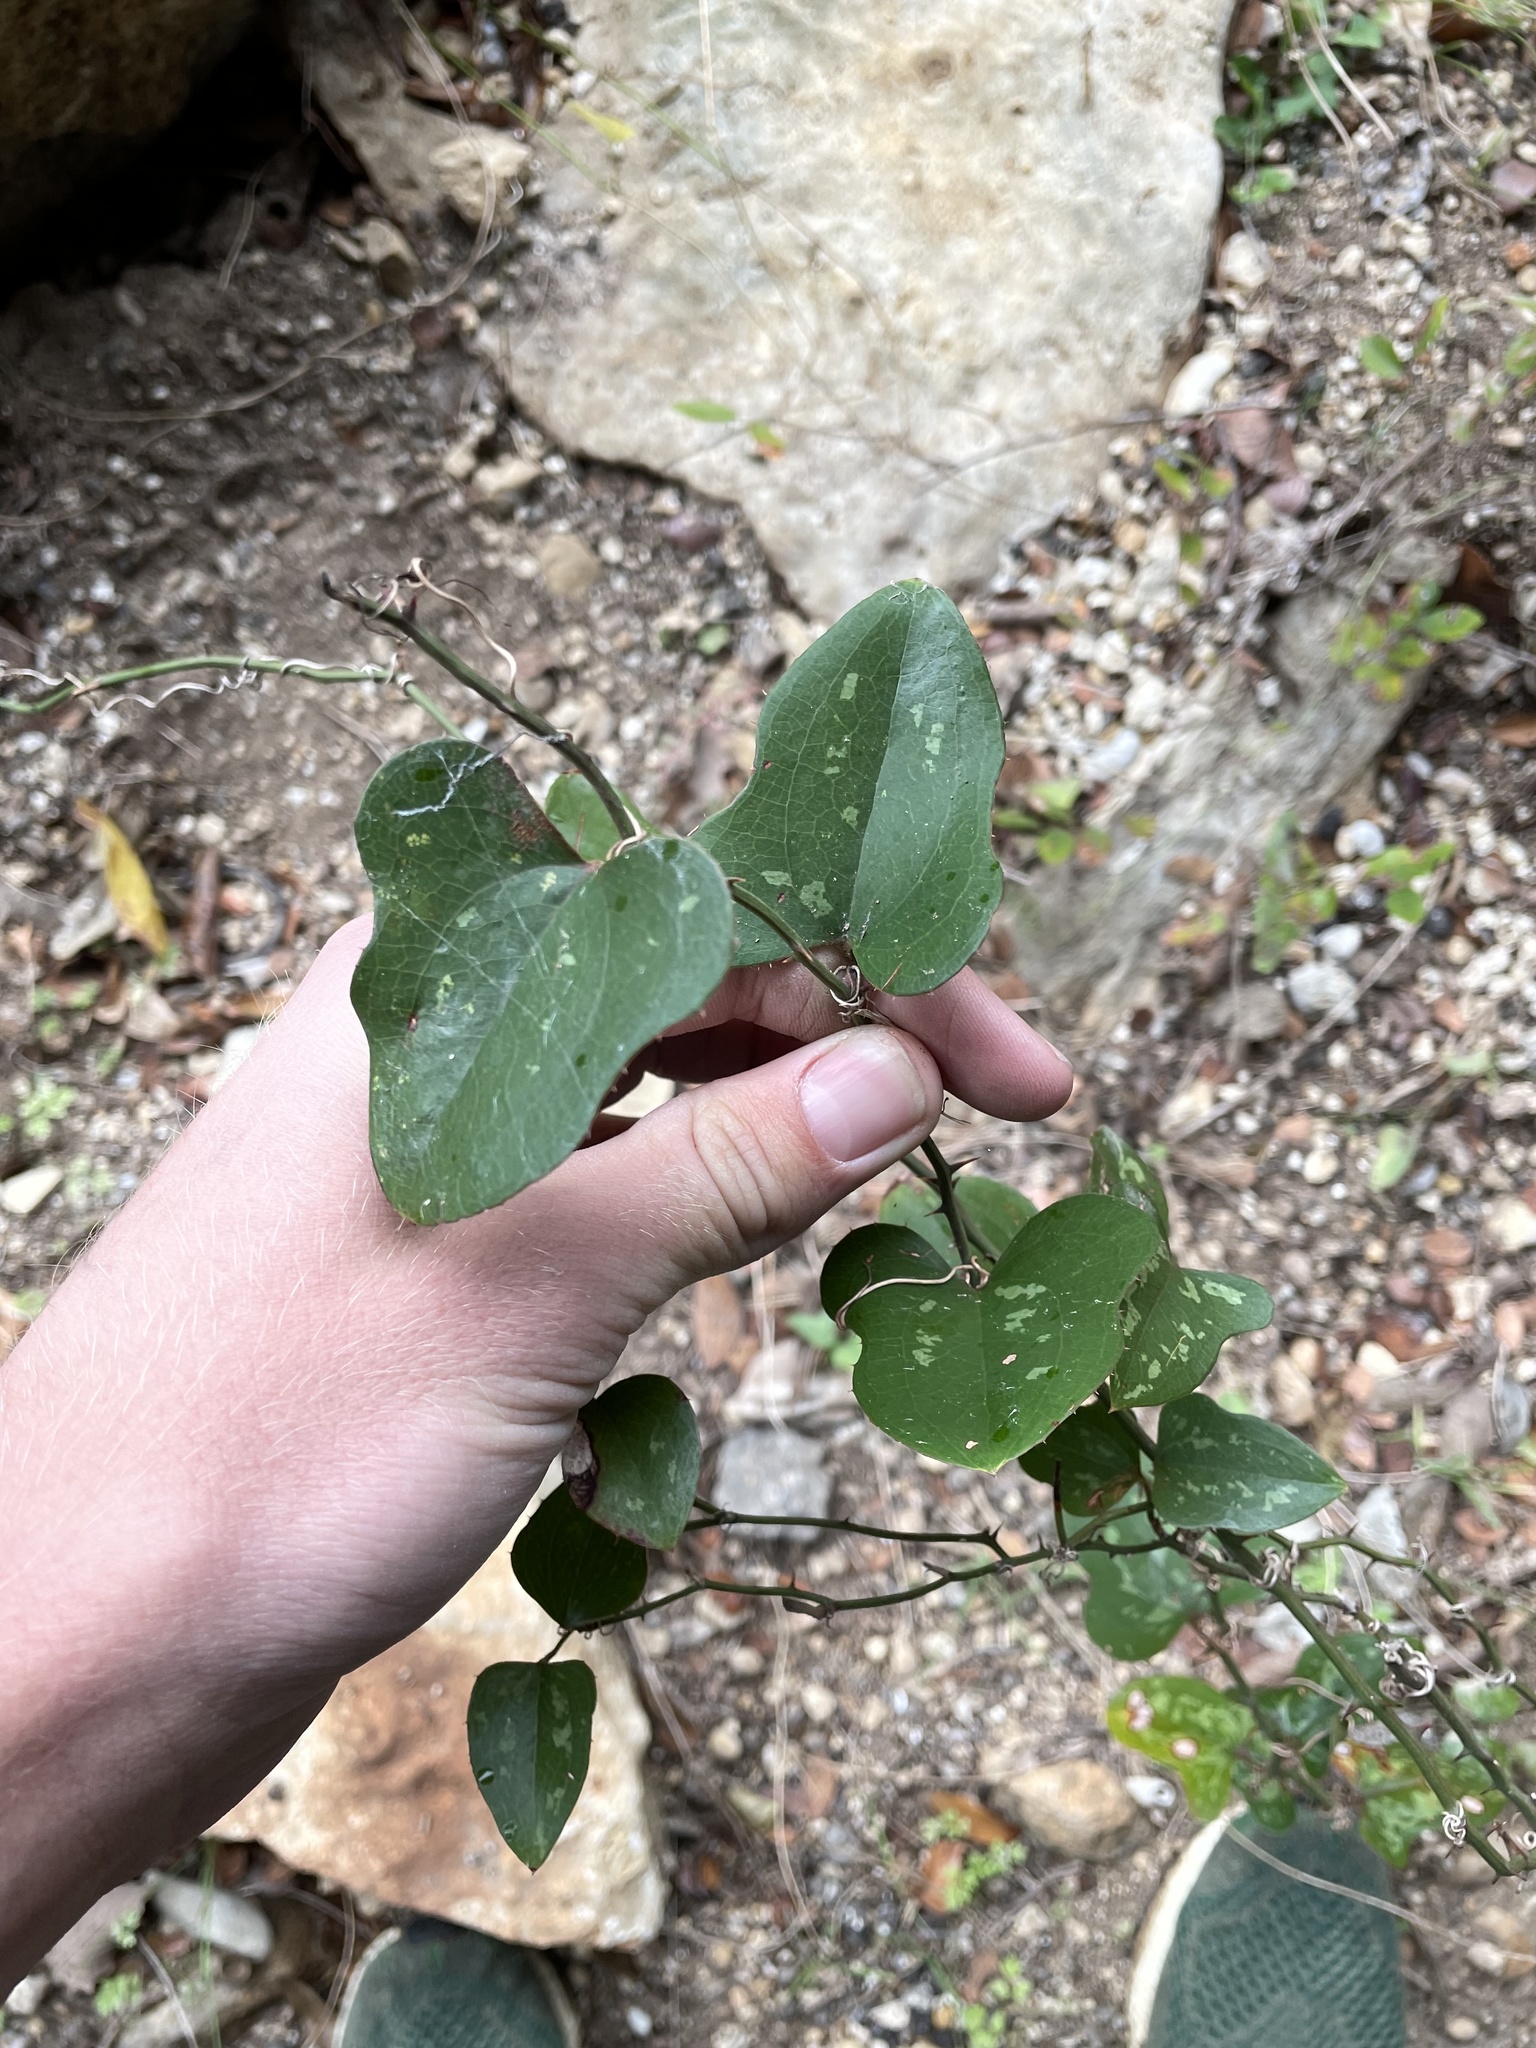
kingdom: Plantae
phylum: Tracheophyta
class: Liliopsida
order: Liliales
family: Smilacaceae
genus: Smilax
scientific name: Smilax bona-nox
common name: Catbrier
